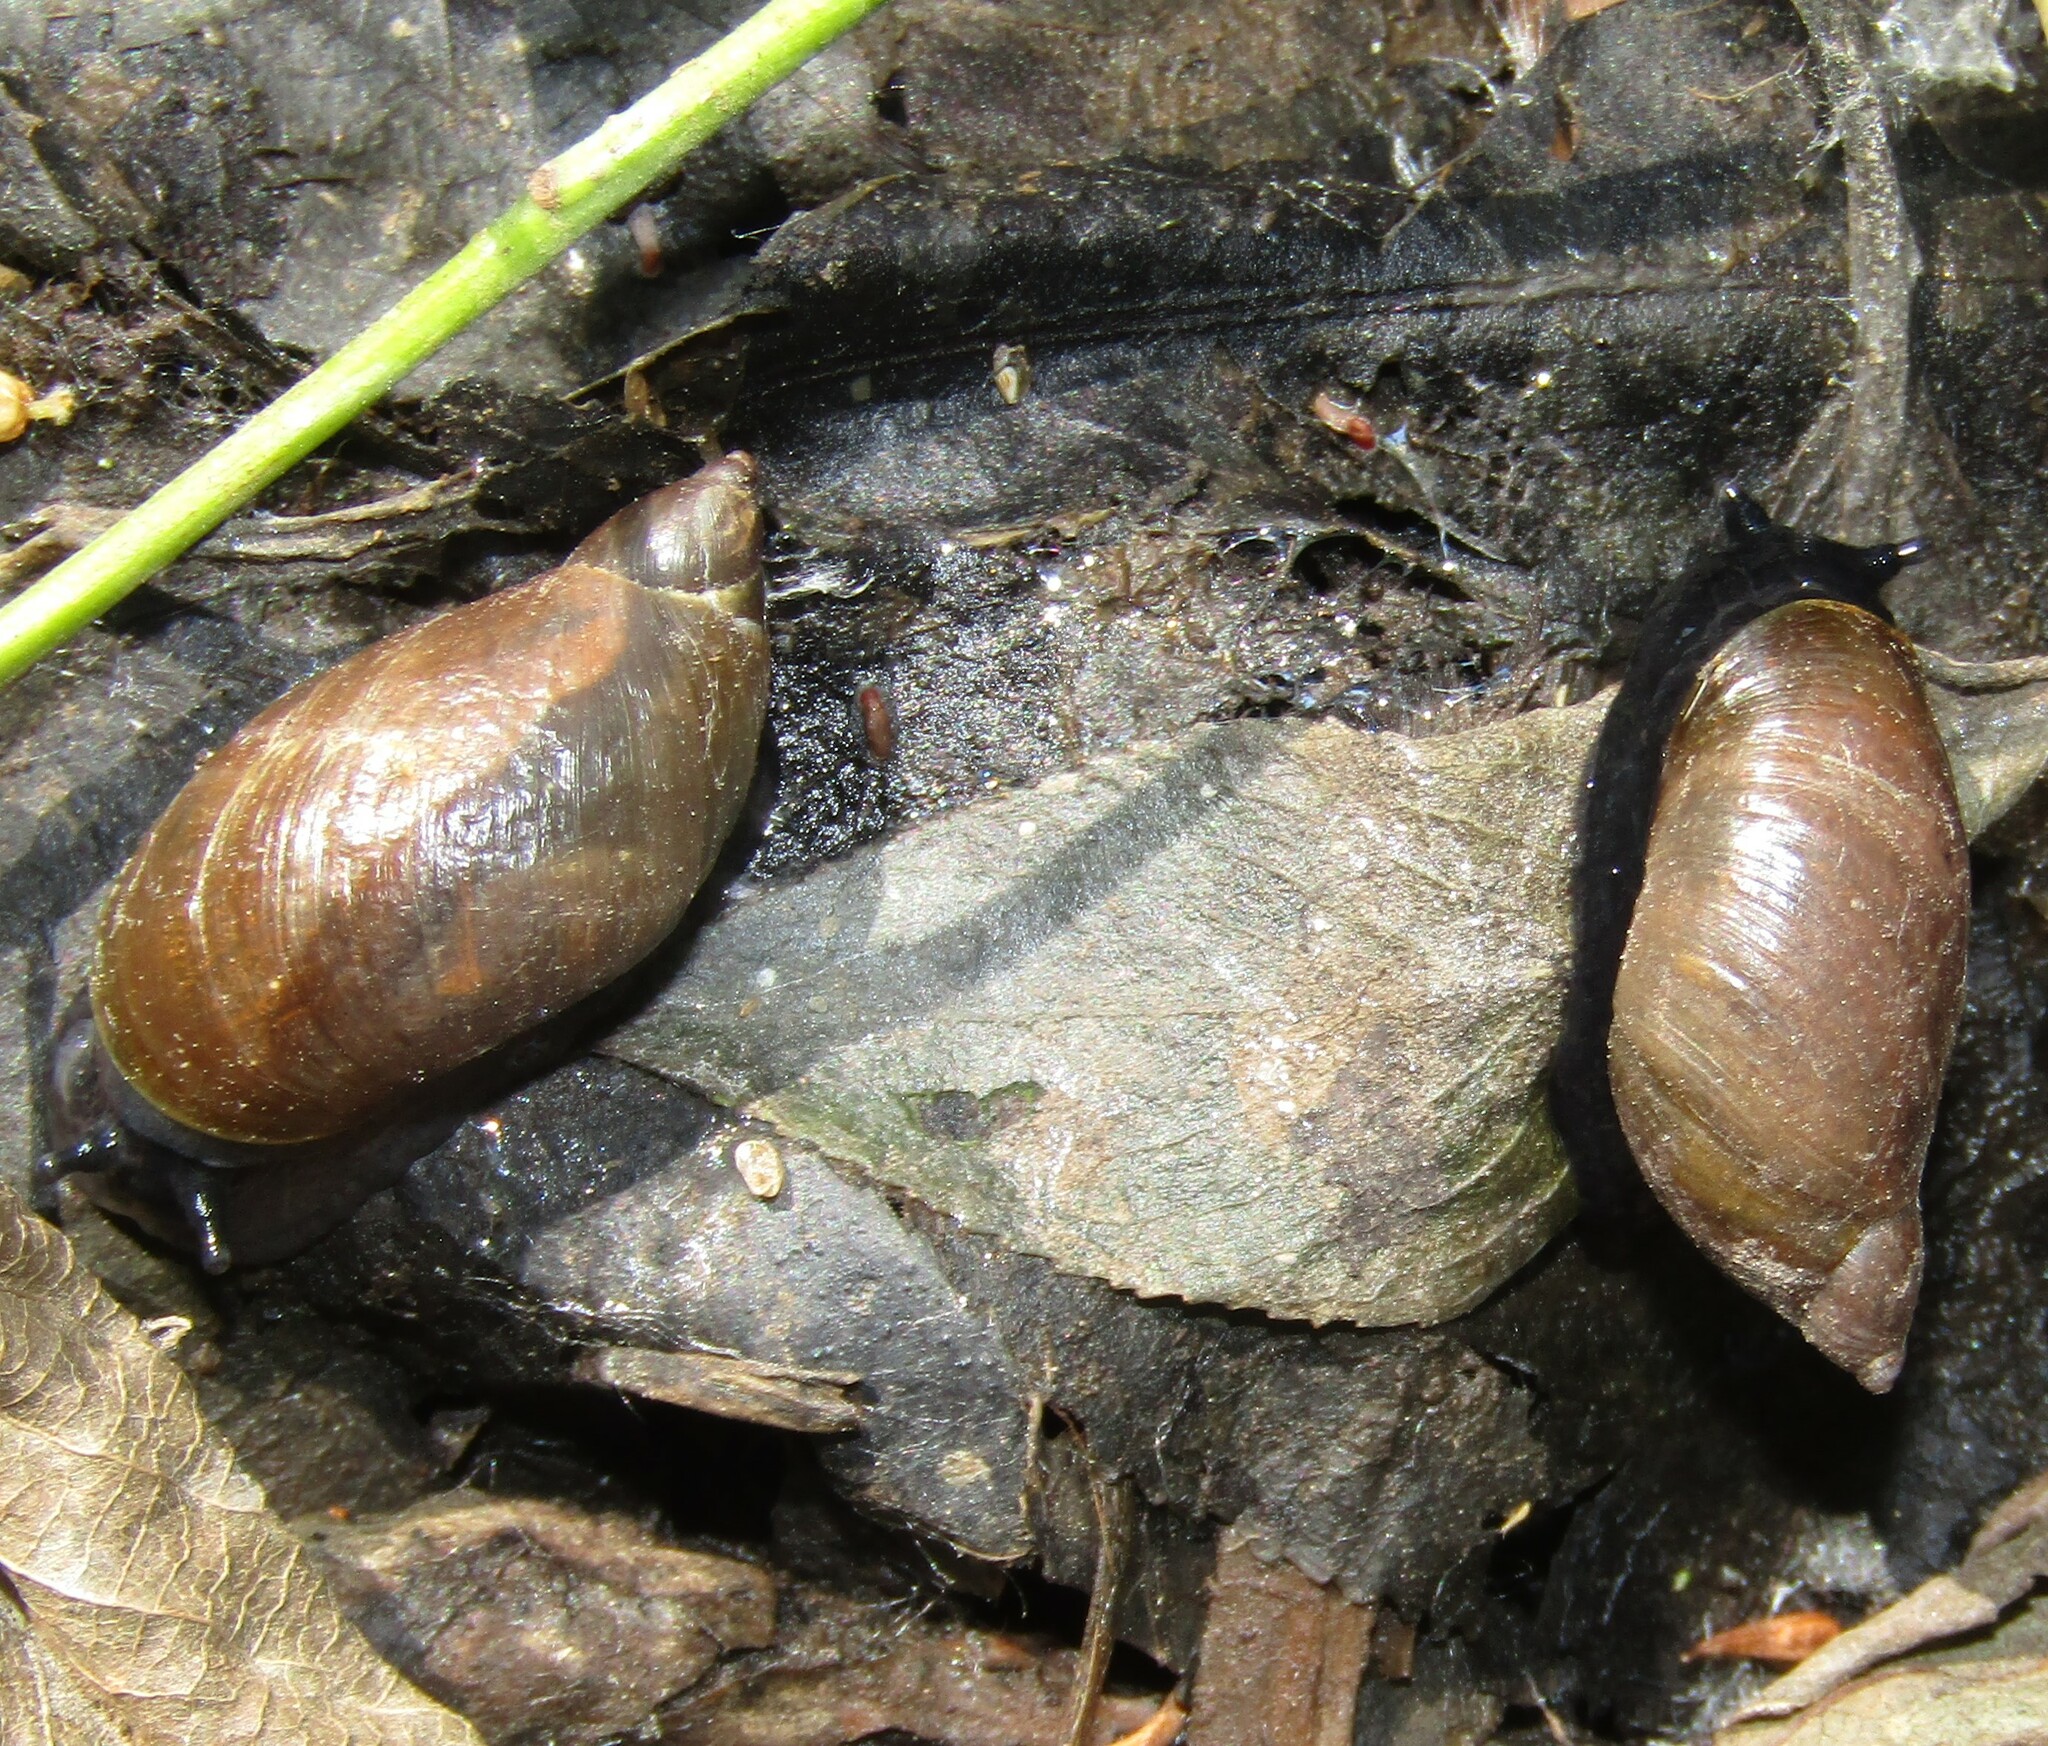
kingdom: Animalia
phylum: Mollusca
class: Gastropoda
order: Stylommatophora
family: Succineidae
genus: Succinea
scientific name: Succinea putris
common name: European ambersnail
